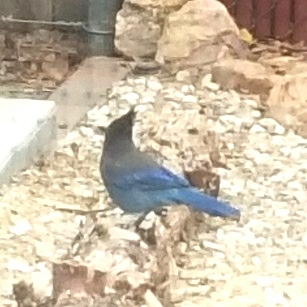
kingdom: Animalia
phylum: Chordata
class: Aves
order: Passeriformes
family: Corvidae
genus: Cyanocitta
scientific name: Cyanocitta stelleri
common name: Steller's jay
